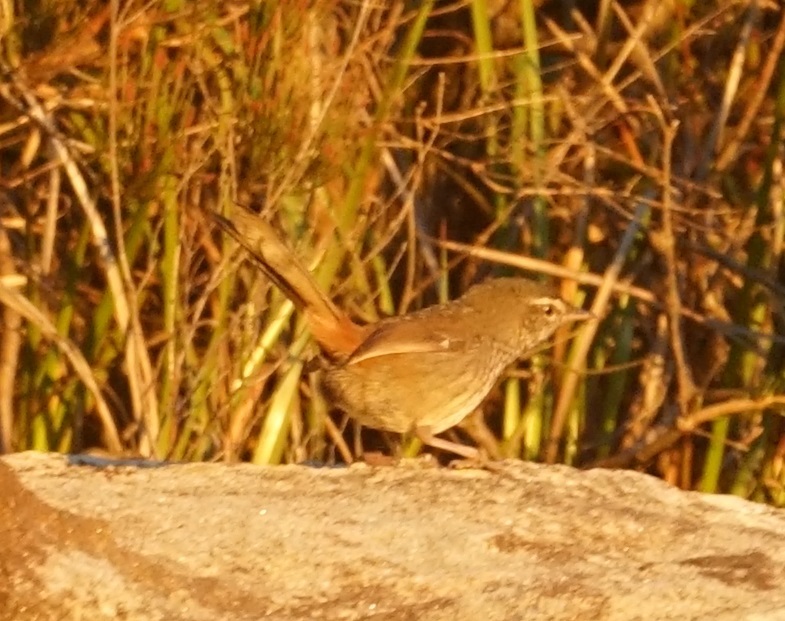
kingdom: Animalia
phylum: Chordata
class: Aves
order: Passeriformes
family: Acanthizidae
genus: Calamanthus
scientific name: Calamanthus pyrrhopygius
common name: Chestnut-rumped heathwren
